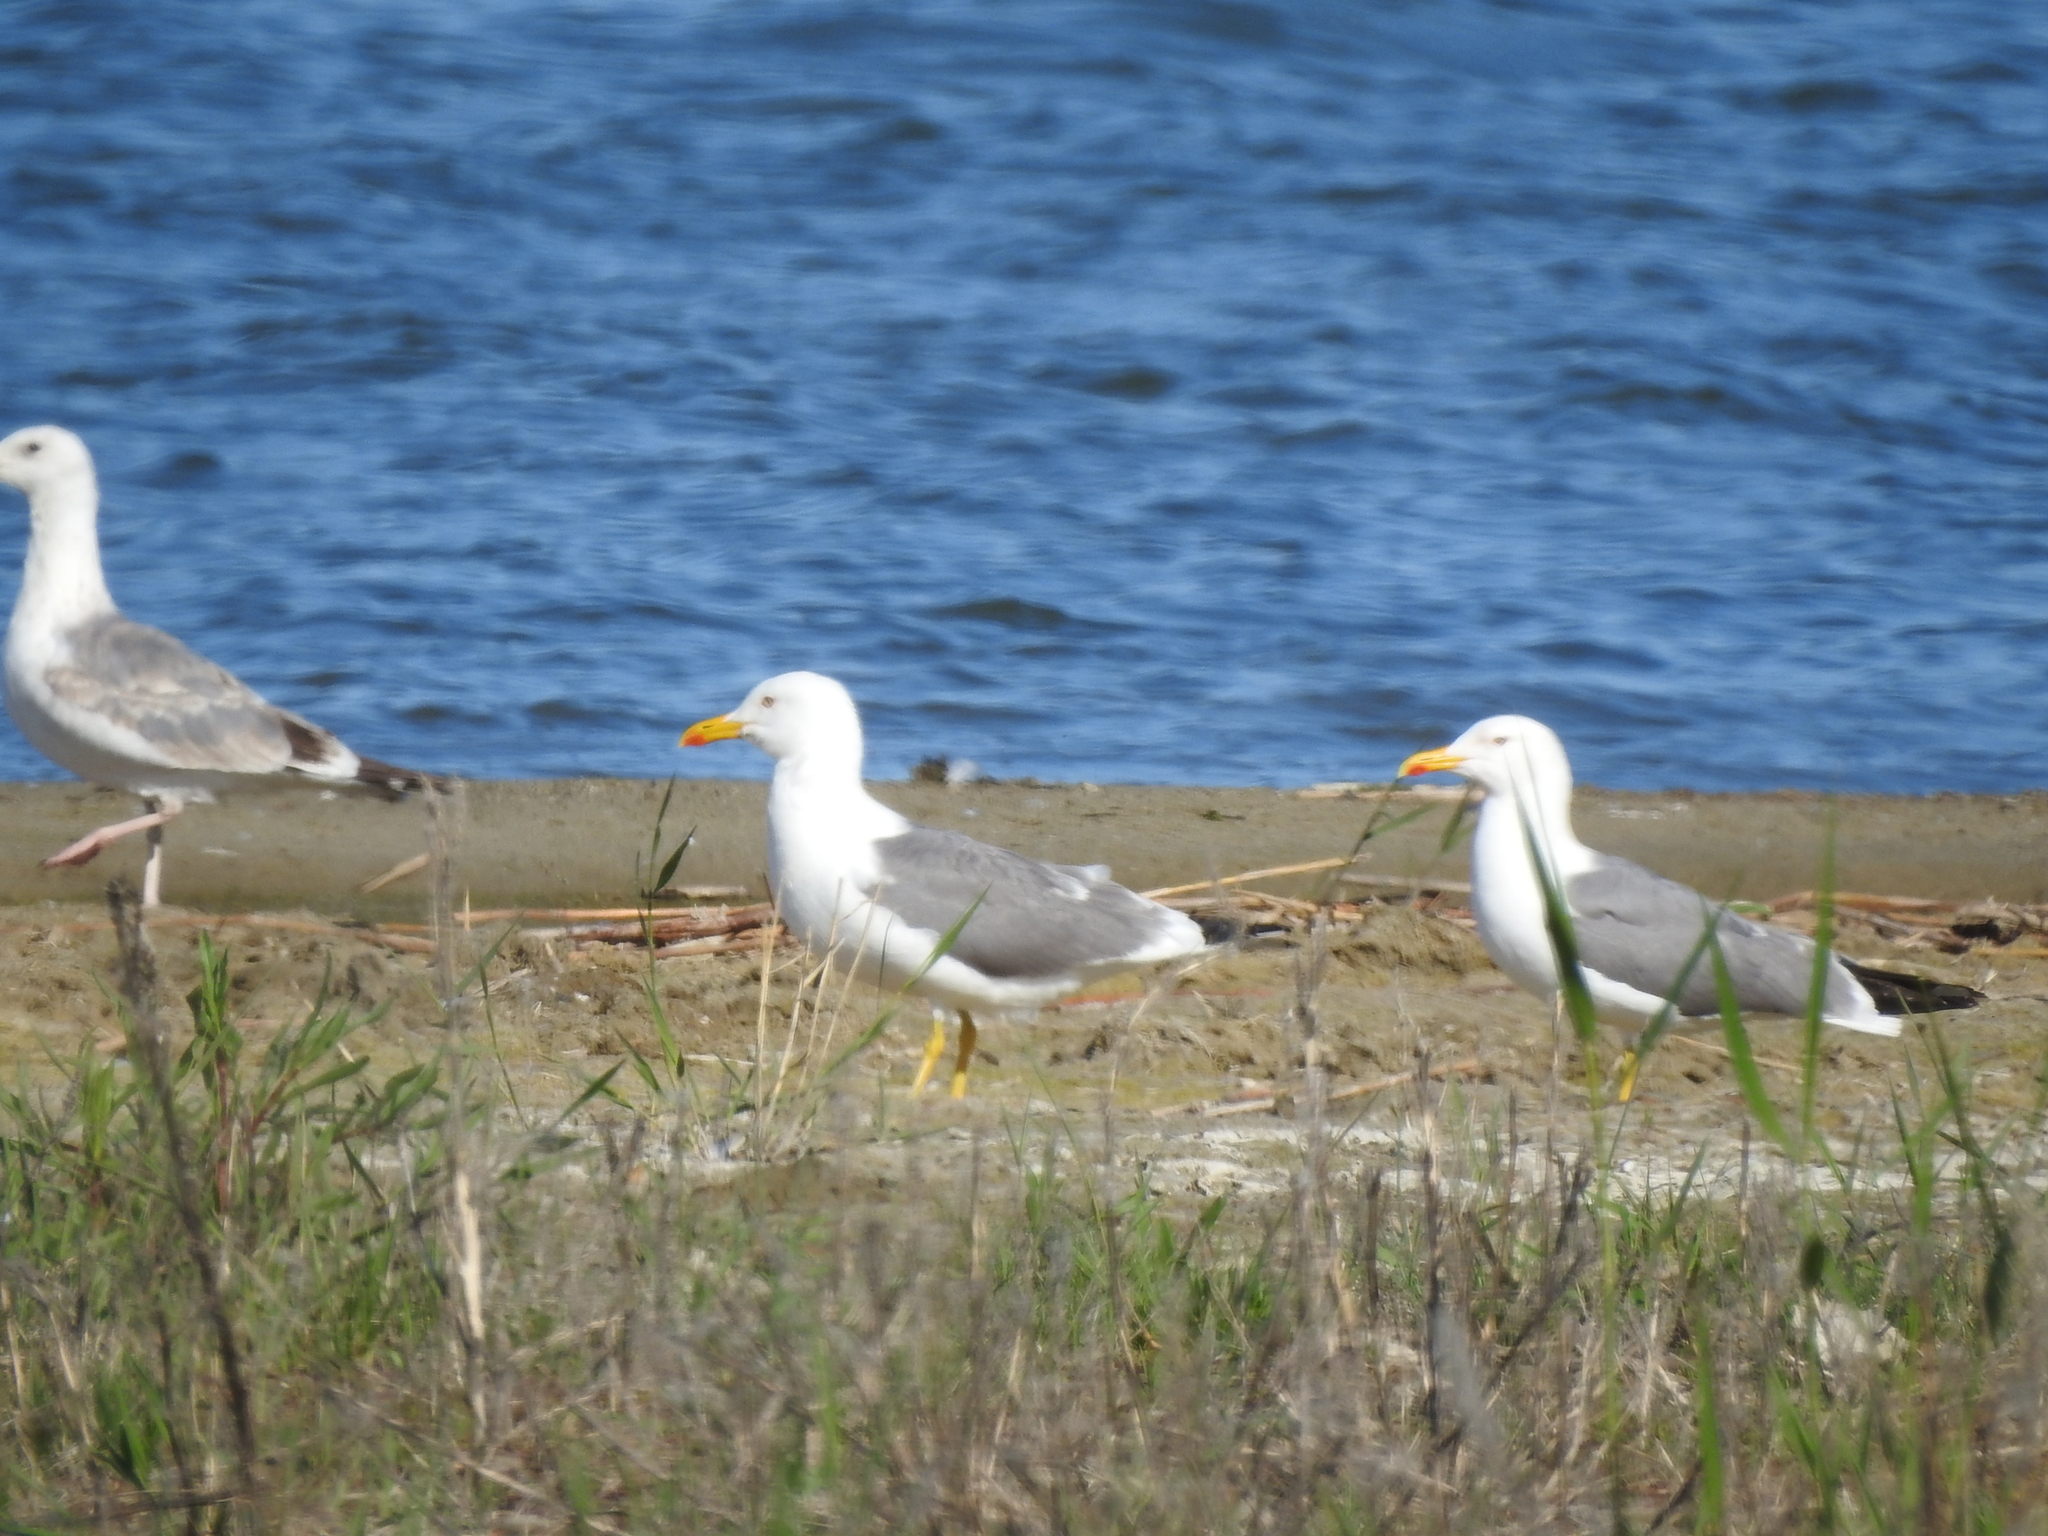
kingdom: Animalia
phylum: Chordata
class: Aves
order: Charadriiformes
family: Laridae
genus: Larus
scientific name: Larus fuscus
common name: Lesser black-backed gull
